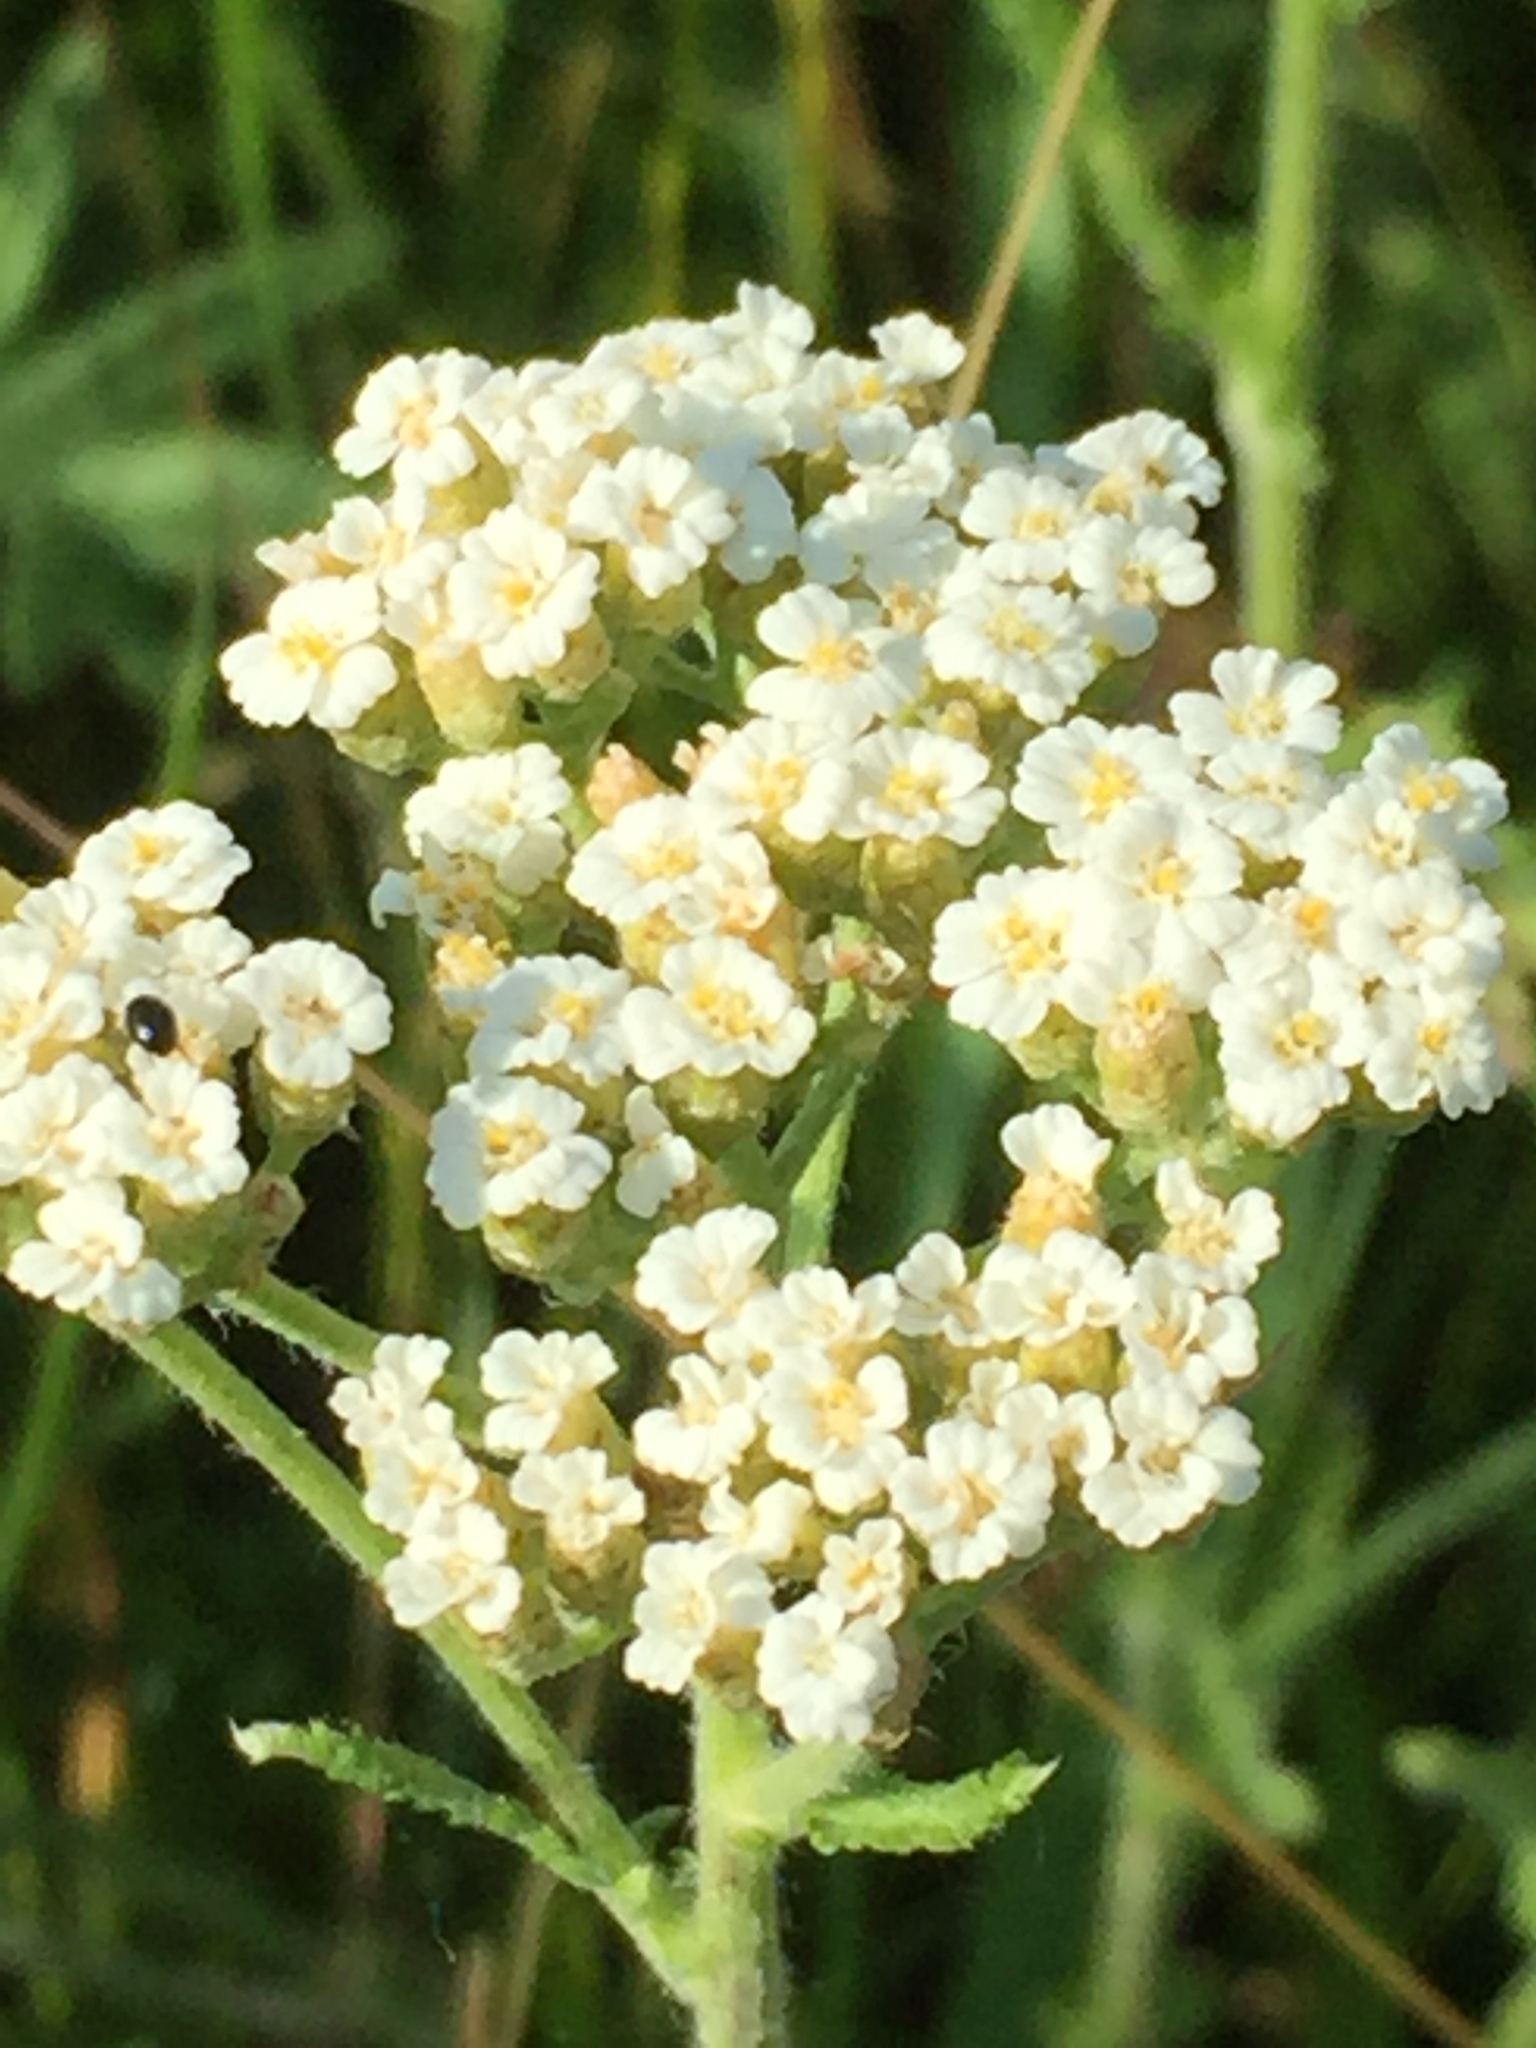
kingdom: Plantae
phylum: Tracheophyta
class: Magnoliopsida
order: Asterales
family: Asteraceae
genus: Achillea
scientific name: Achillea setacea
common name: Bristly yarrow
